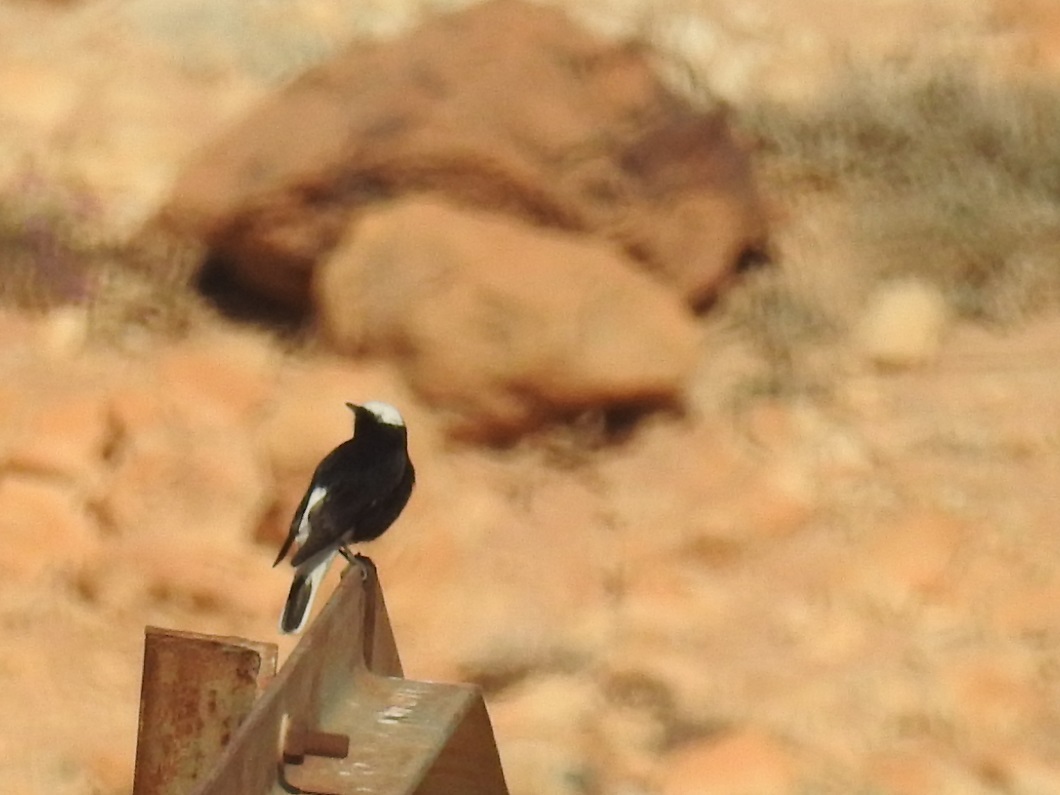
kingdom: Animalia
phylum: Chordata
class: Aves
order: Passeriformes
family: Muscicapidae
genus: Oenanthe
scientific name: Oenanthe leucopyga
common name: White-crowned wheatear
